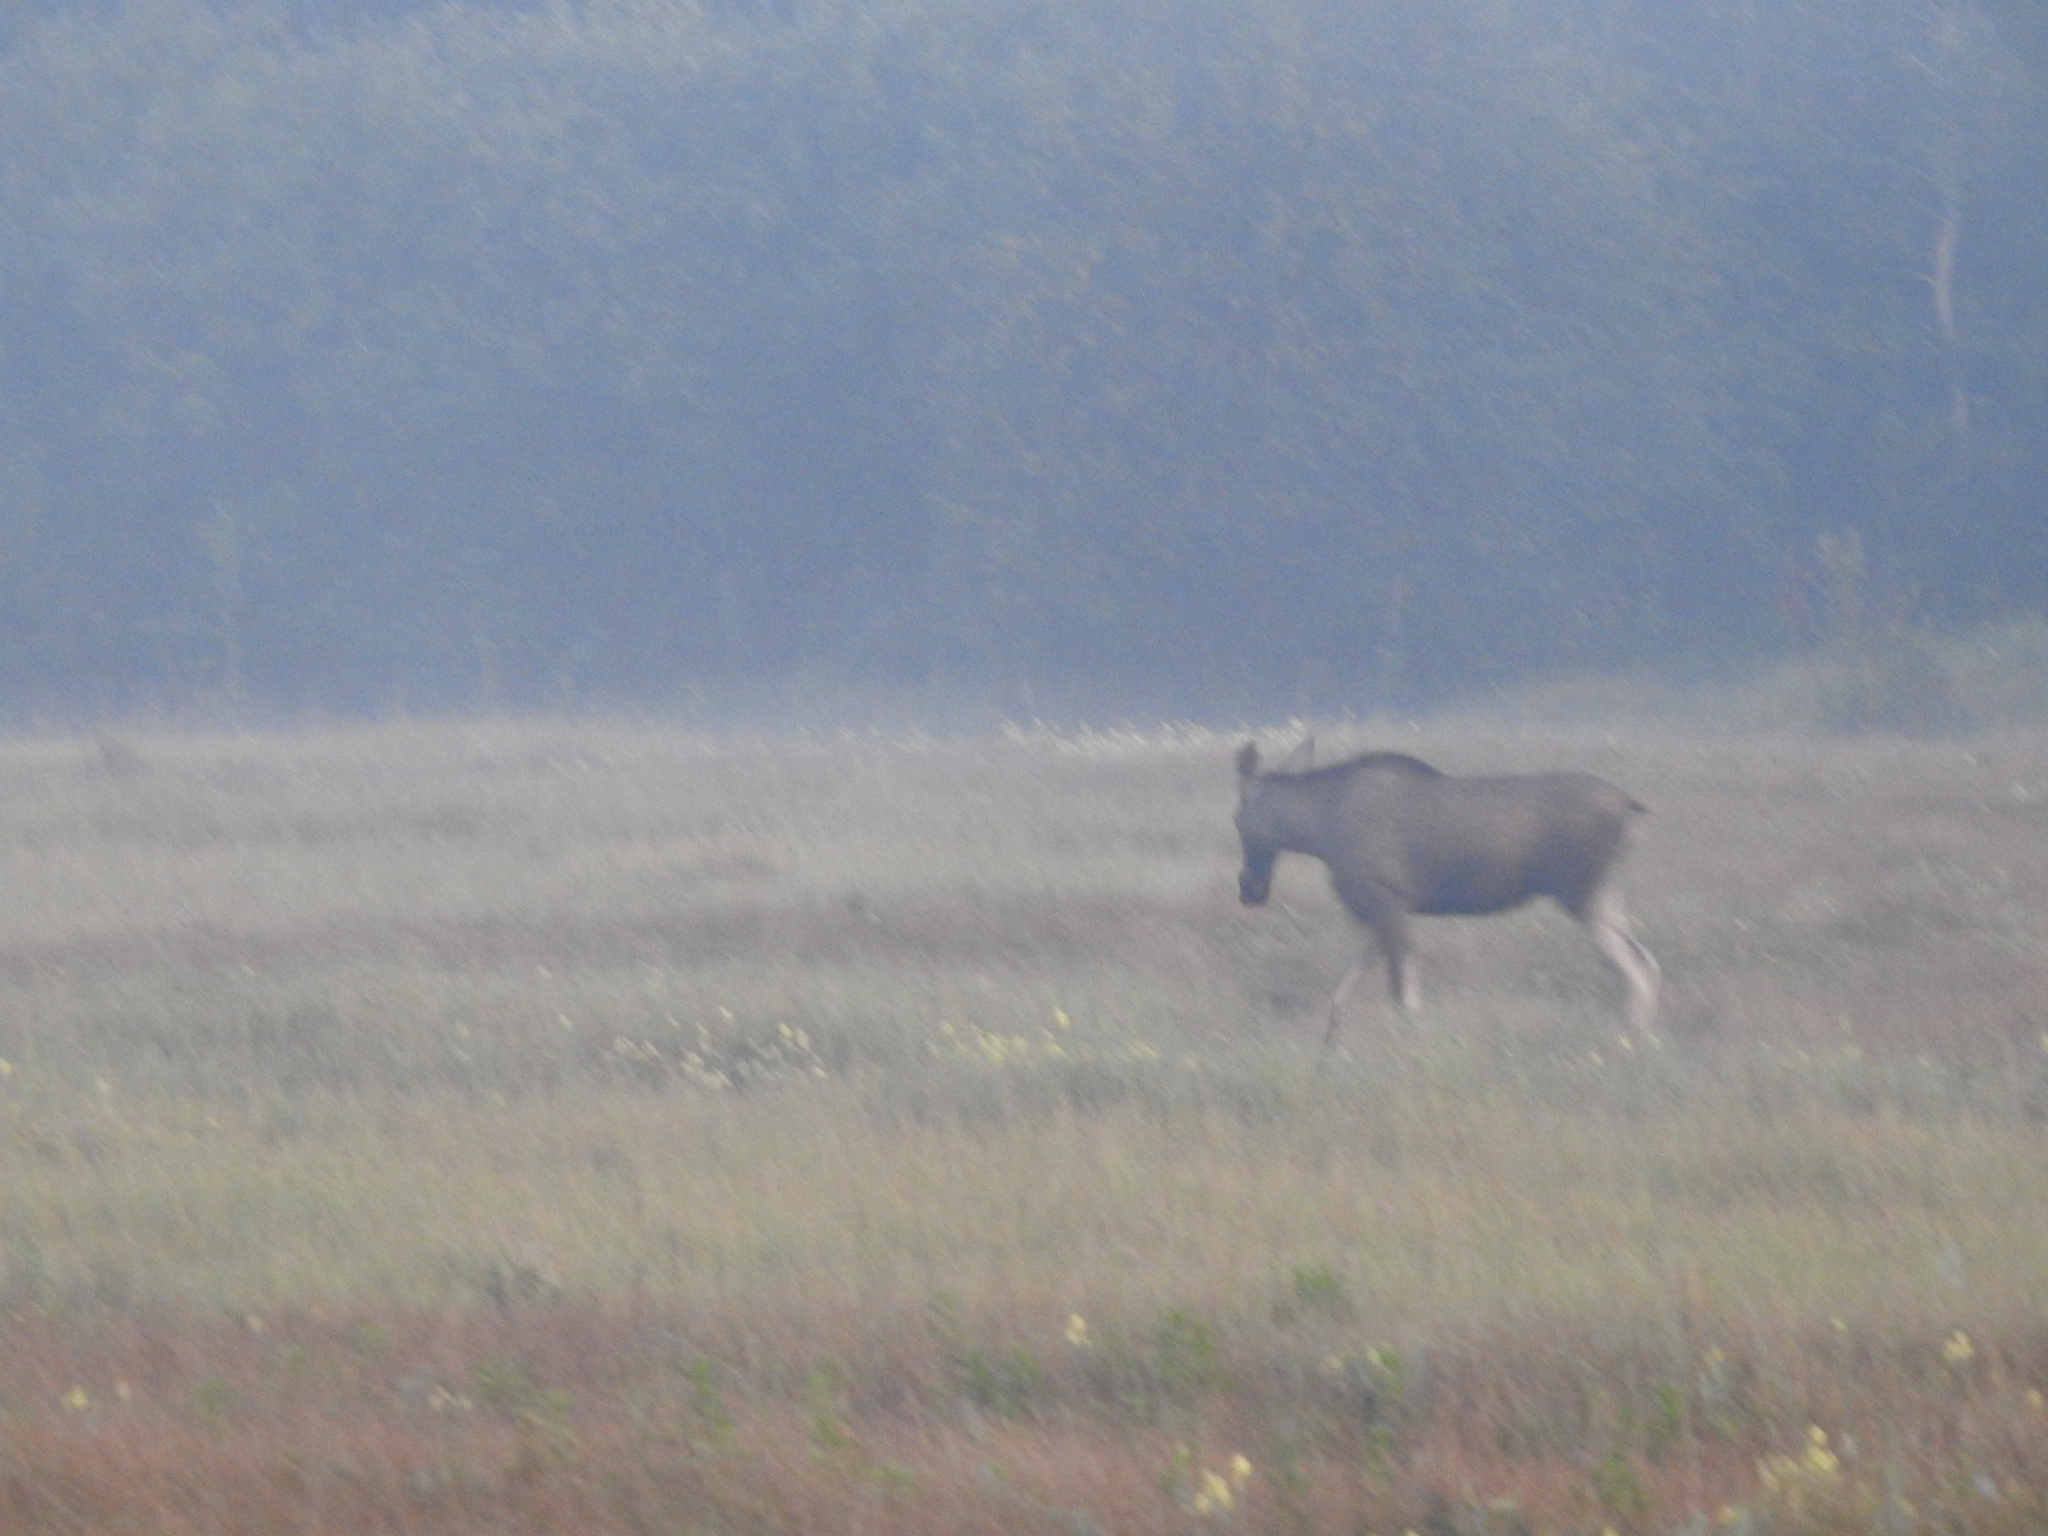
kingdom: Animalia
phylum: Chordata
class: Mammalia
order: Artiodactyla
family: Cervidae
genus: Alces
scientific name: Alces alces
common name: Moose
